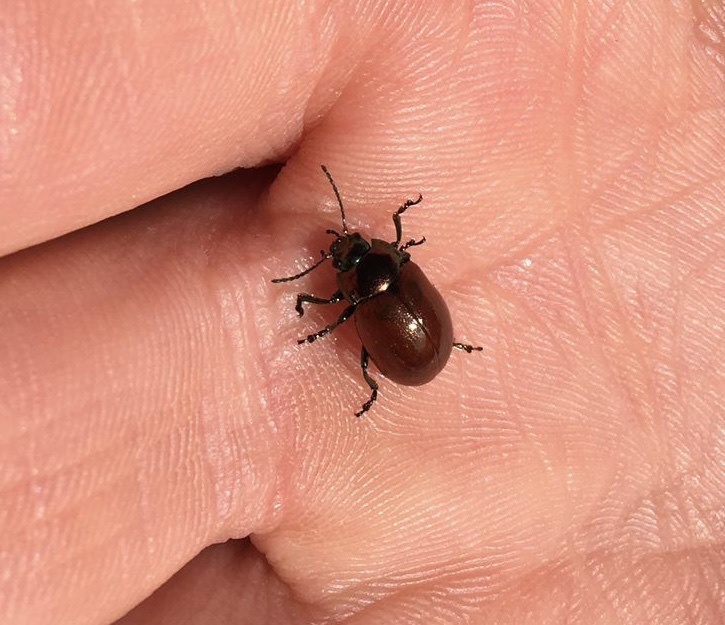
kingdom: Animalia
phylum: Arthropoda
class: Insecta
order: Coleoptera
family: Chrysomelidae
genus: Chrysomela
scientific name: Chrysomela polita
